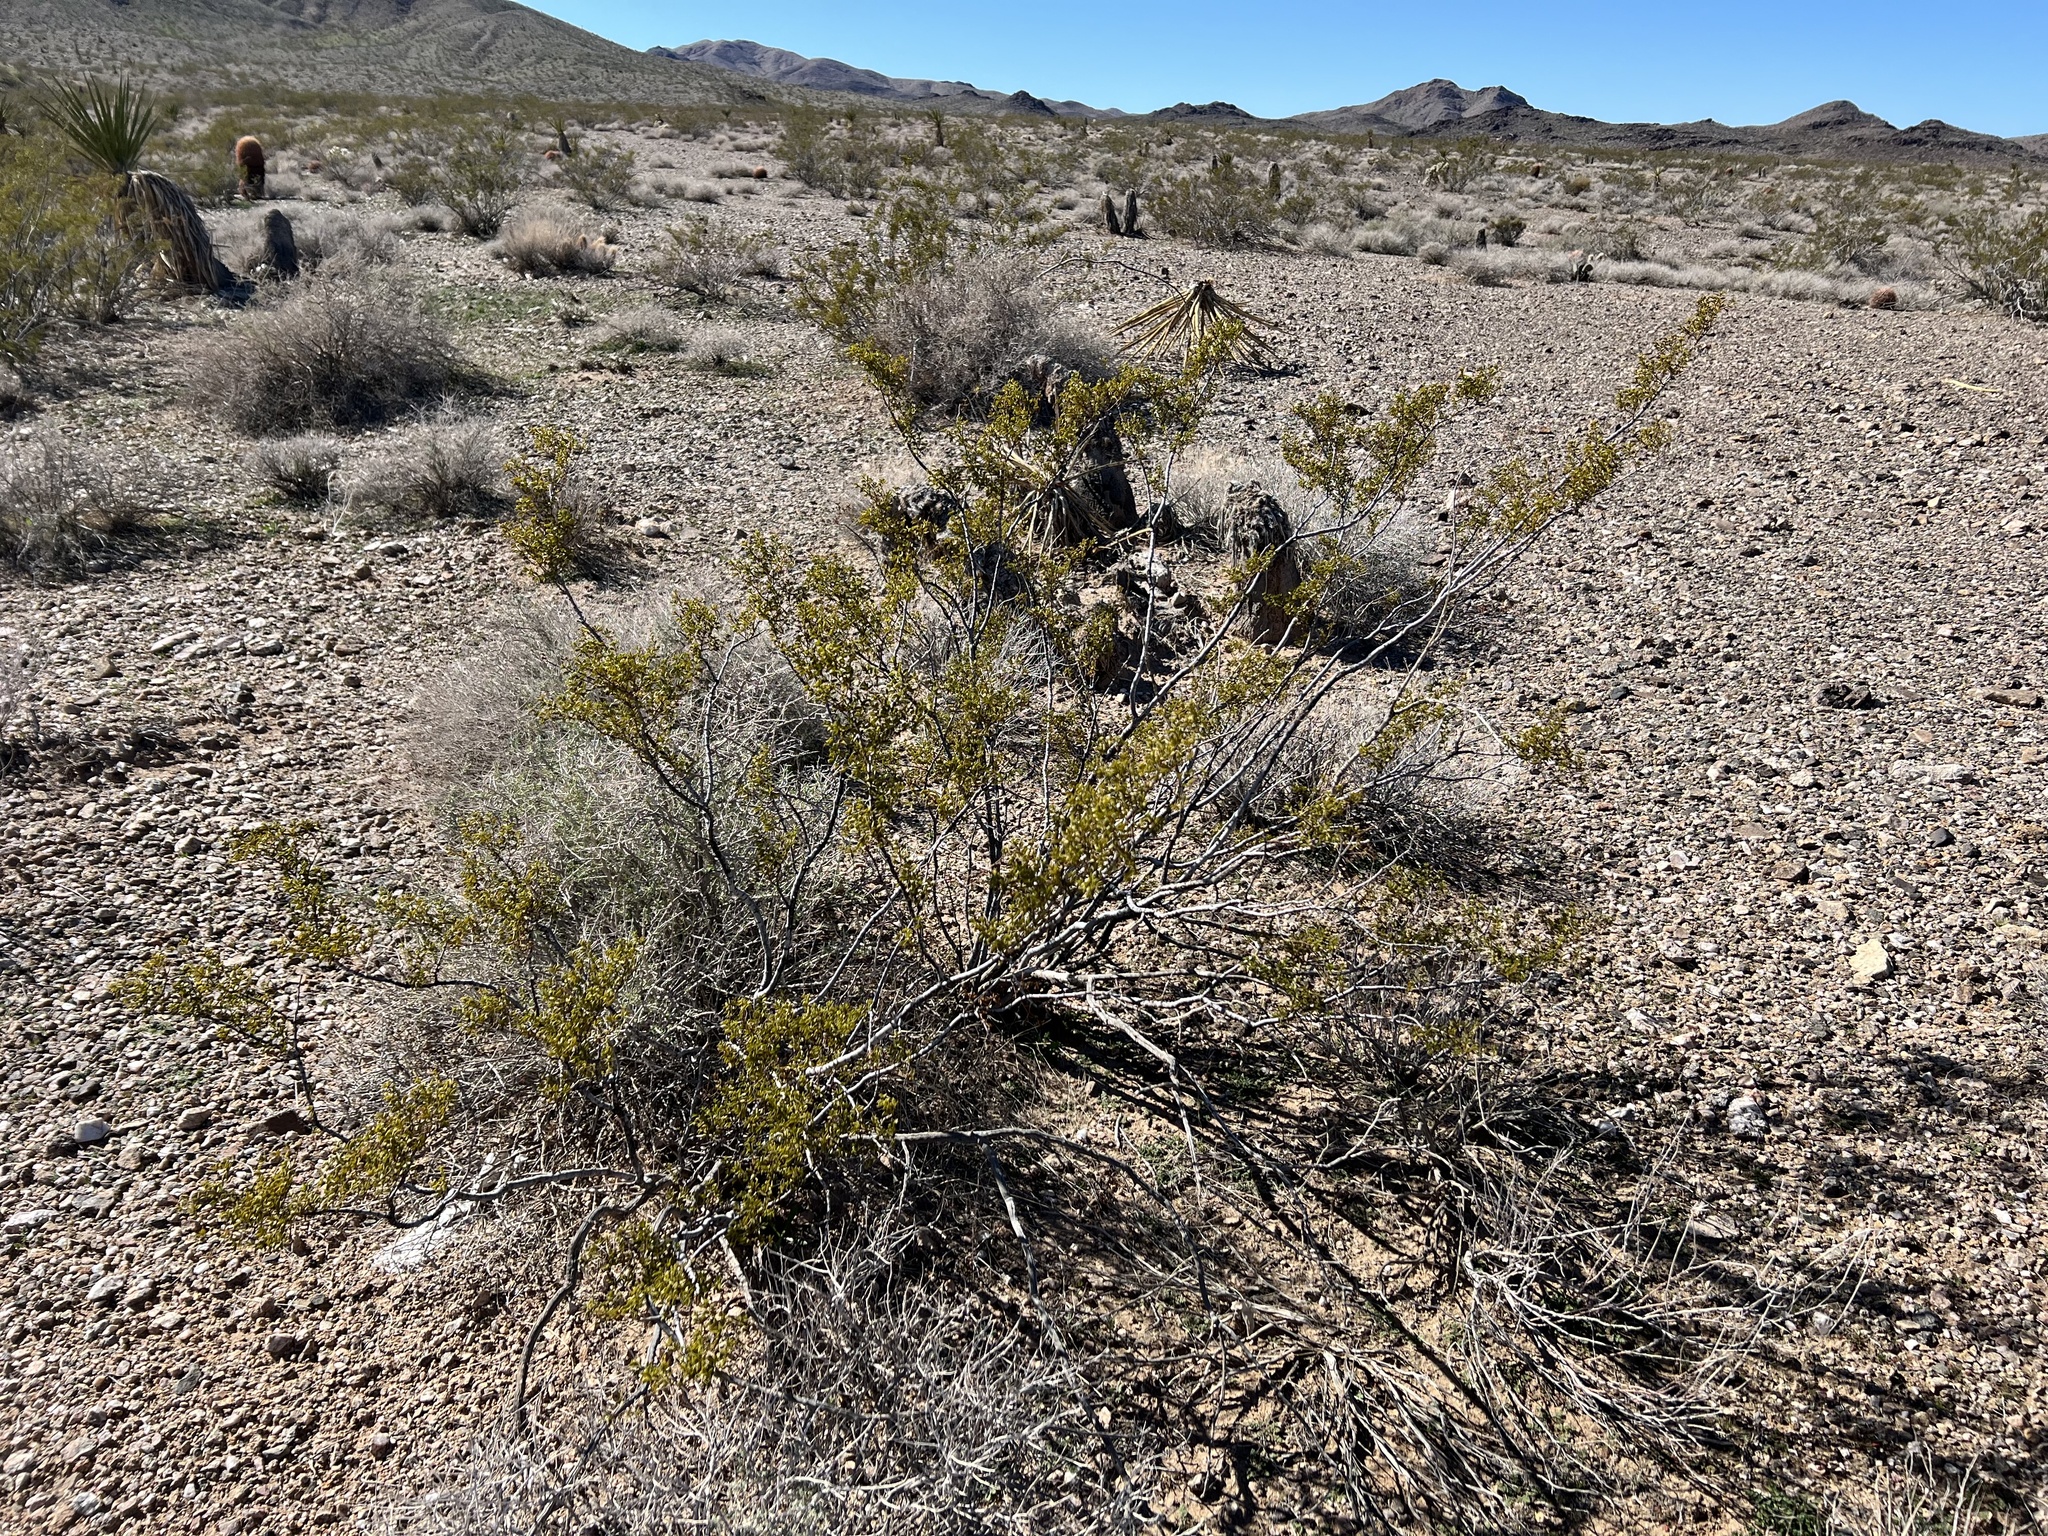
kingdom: Plantae
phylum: Tracheophyta
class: Magnoliopsida
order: Zygophyllales
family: Zygophyllaceae
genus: Larrea
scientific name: Larrea tridentata
